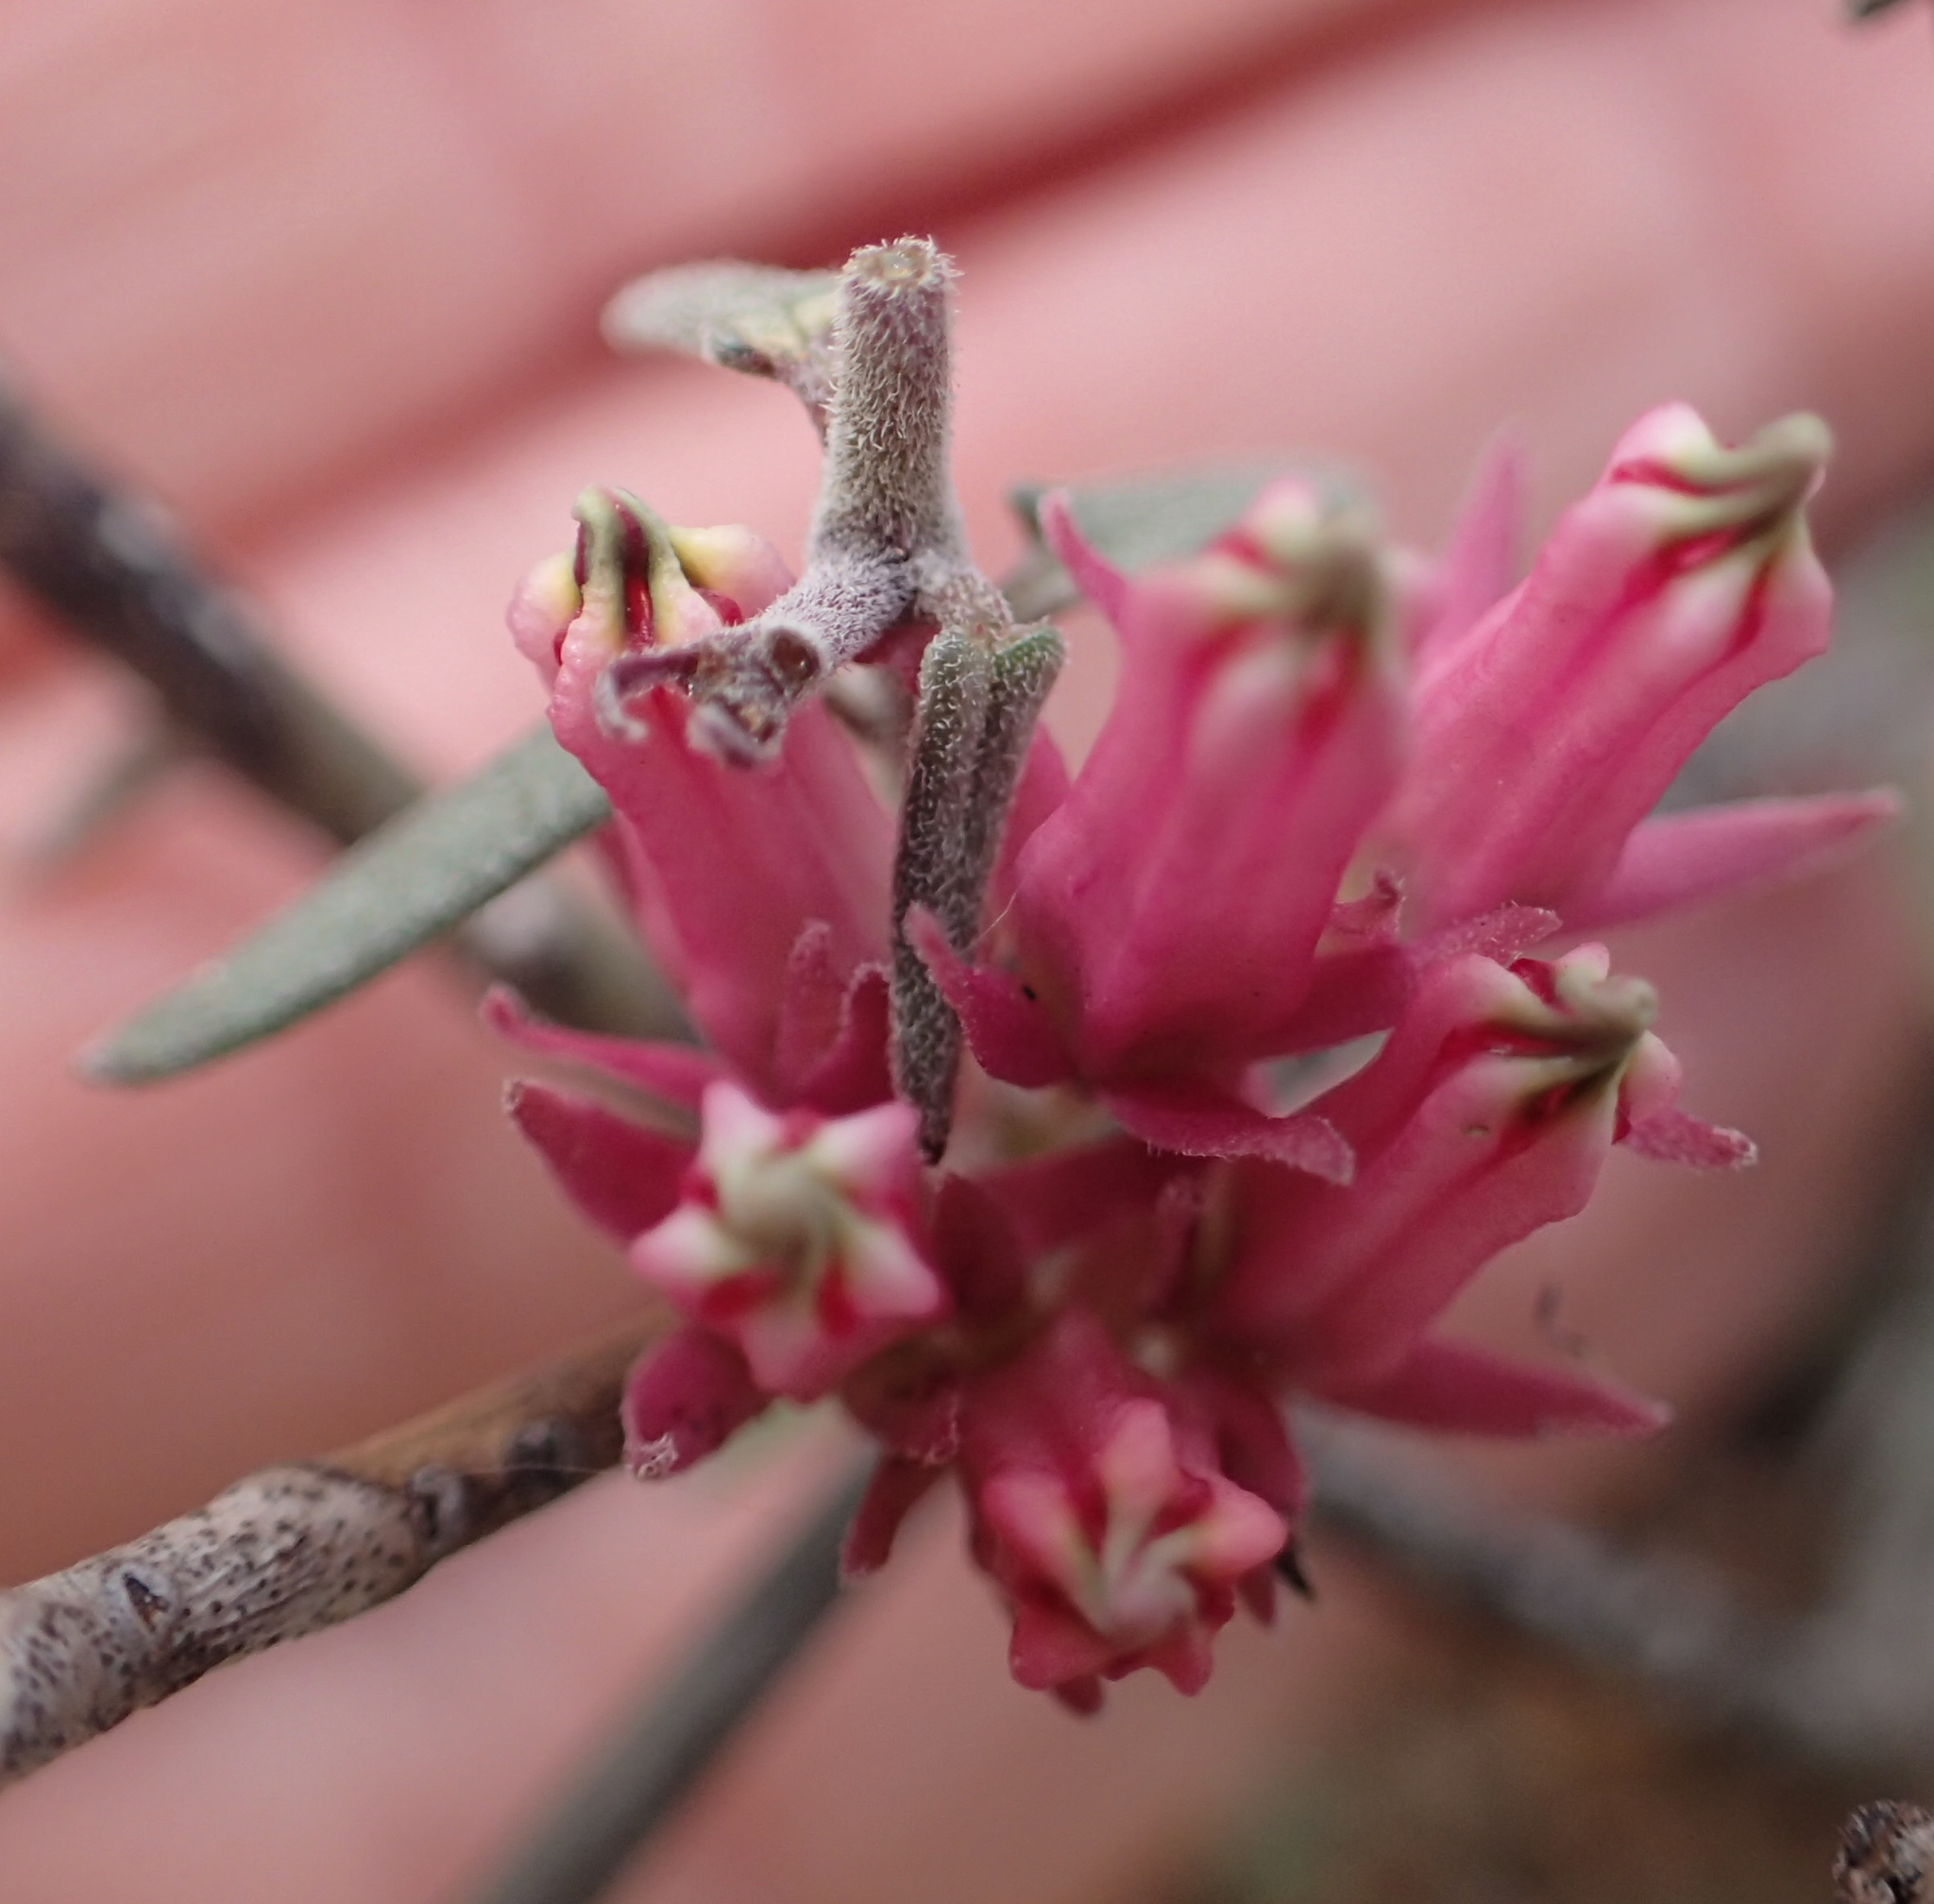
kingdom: Plantae
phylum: Tracheophyta
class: Magnoliopsida
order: Gentianales
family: Apocynaceae
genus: Microloma
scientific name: Microloma sagittatum
